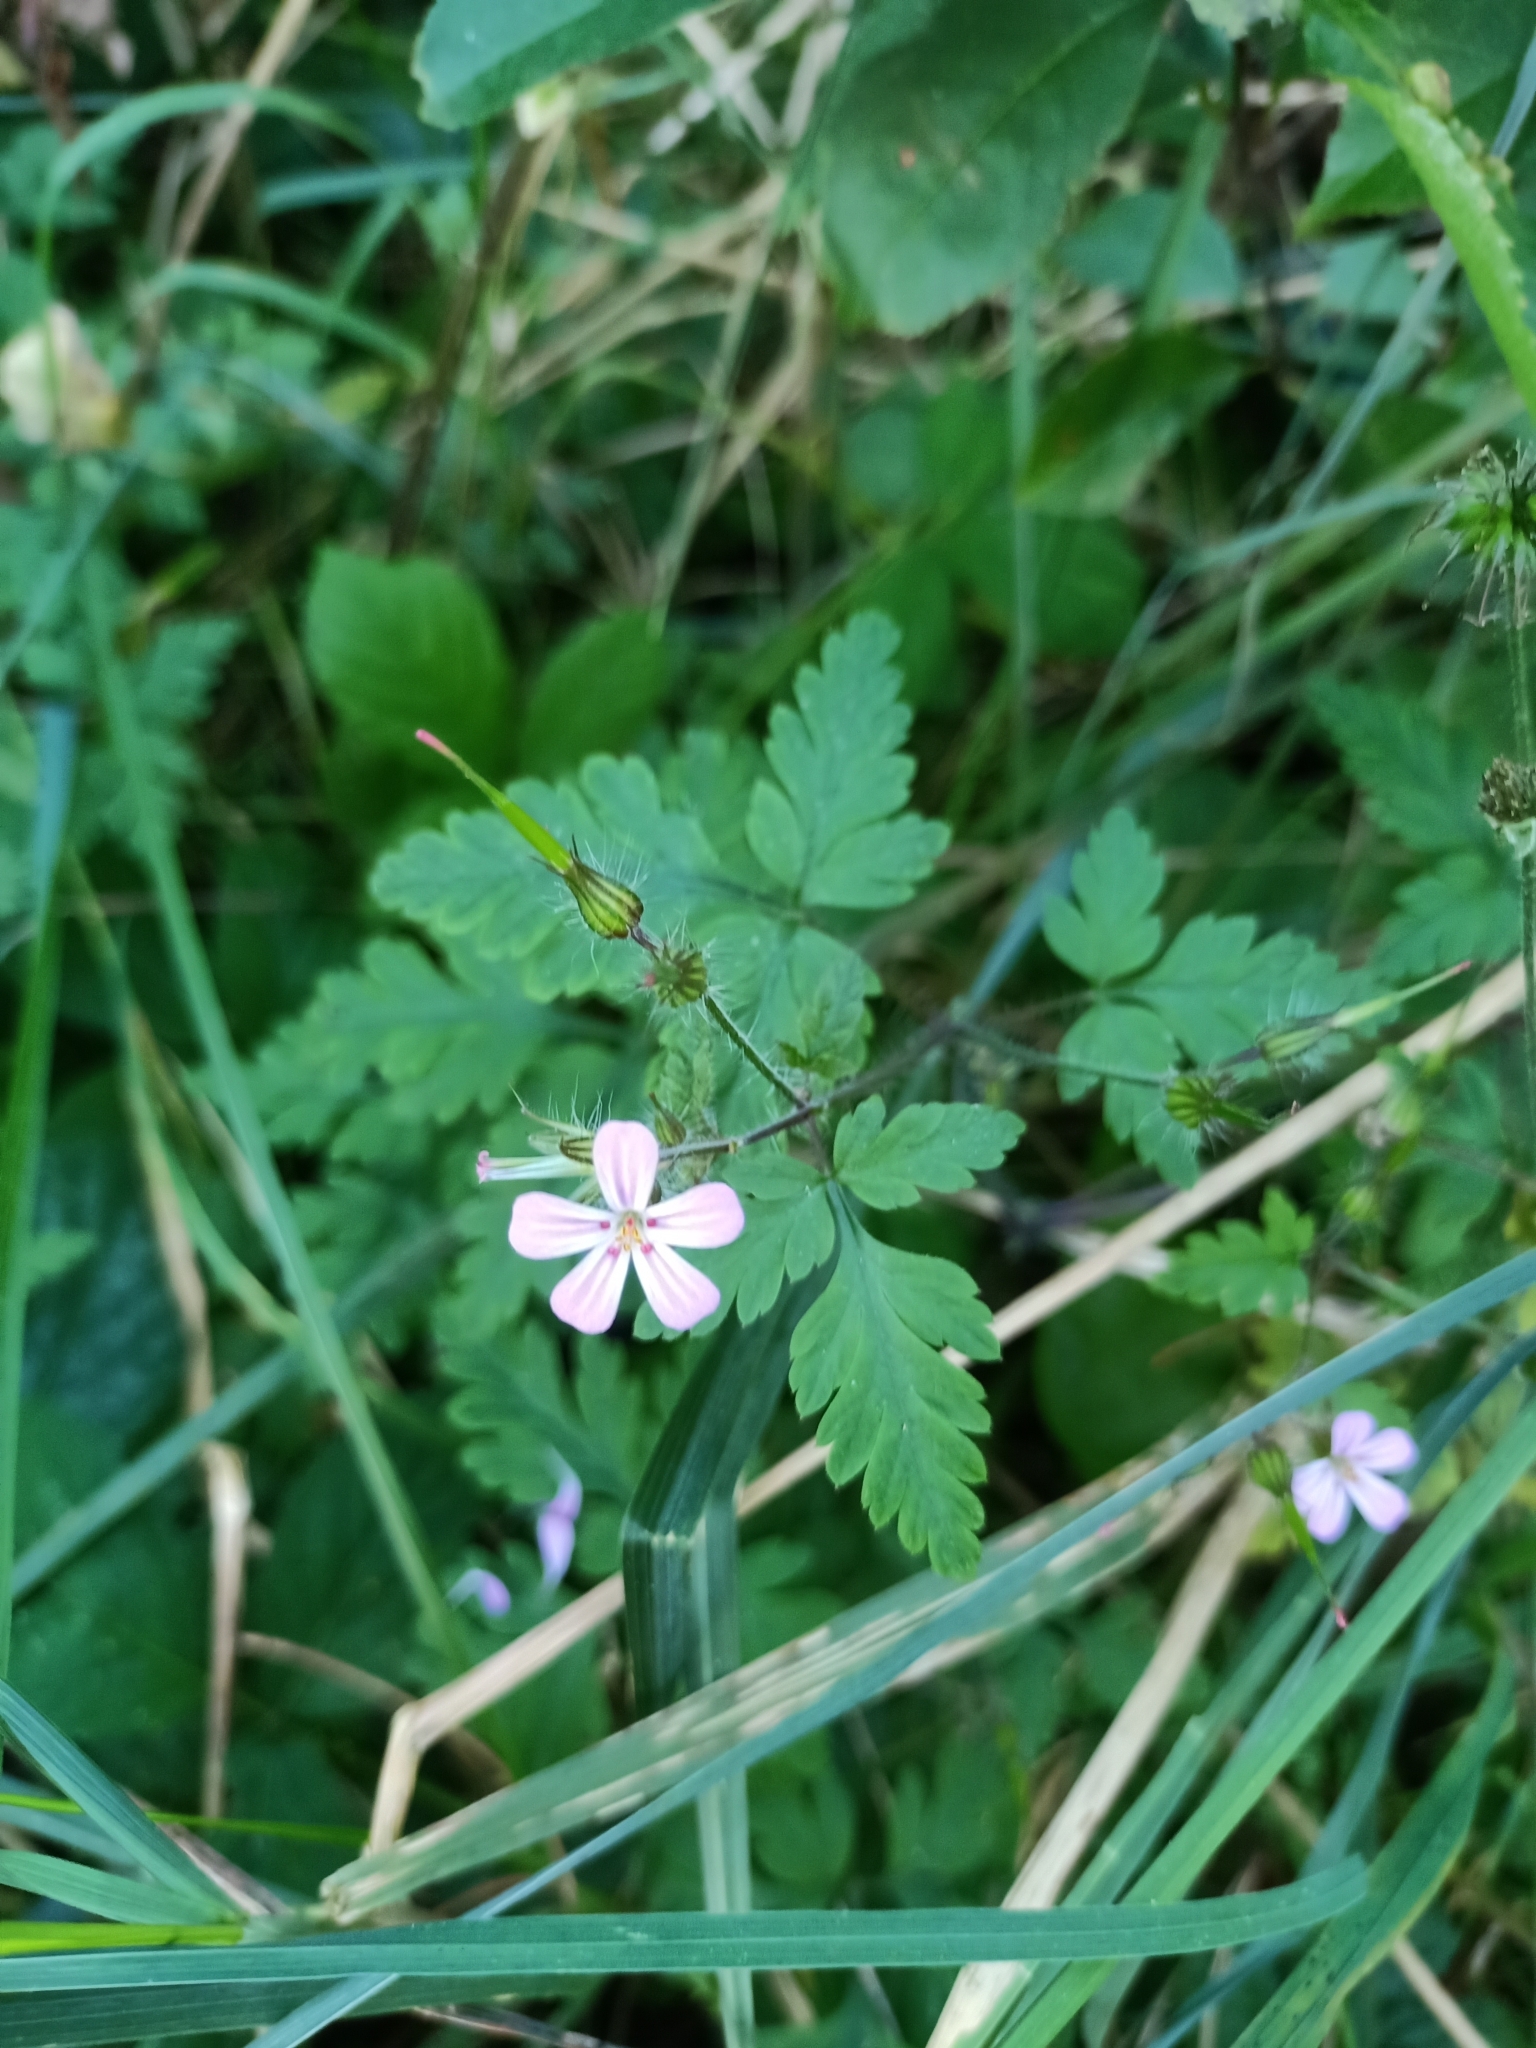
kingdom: Plantae
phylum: Tracheophyta
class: Magnoliopsida
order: Geraniales
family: Geraniaceae
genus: Geranium
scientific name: Geranium robertianum
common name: Herb-robert
